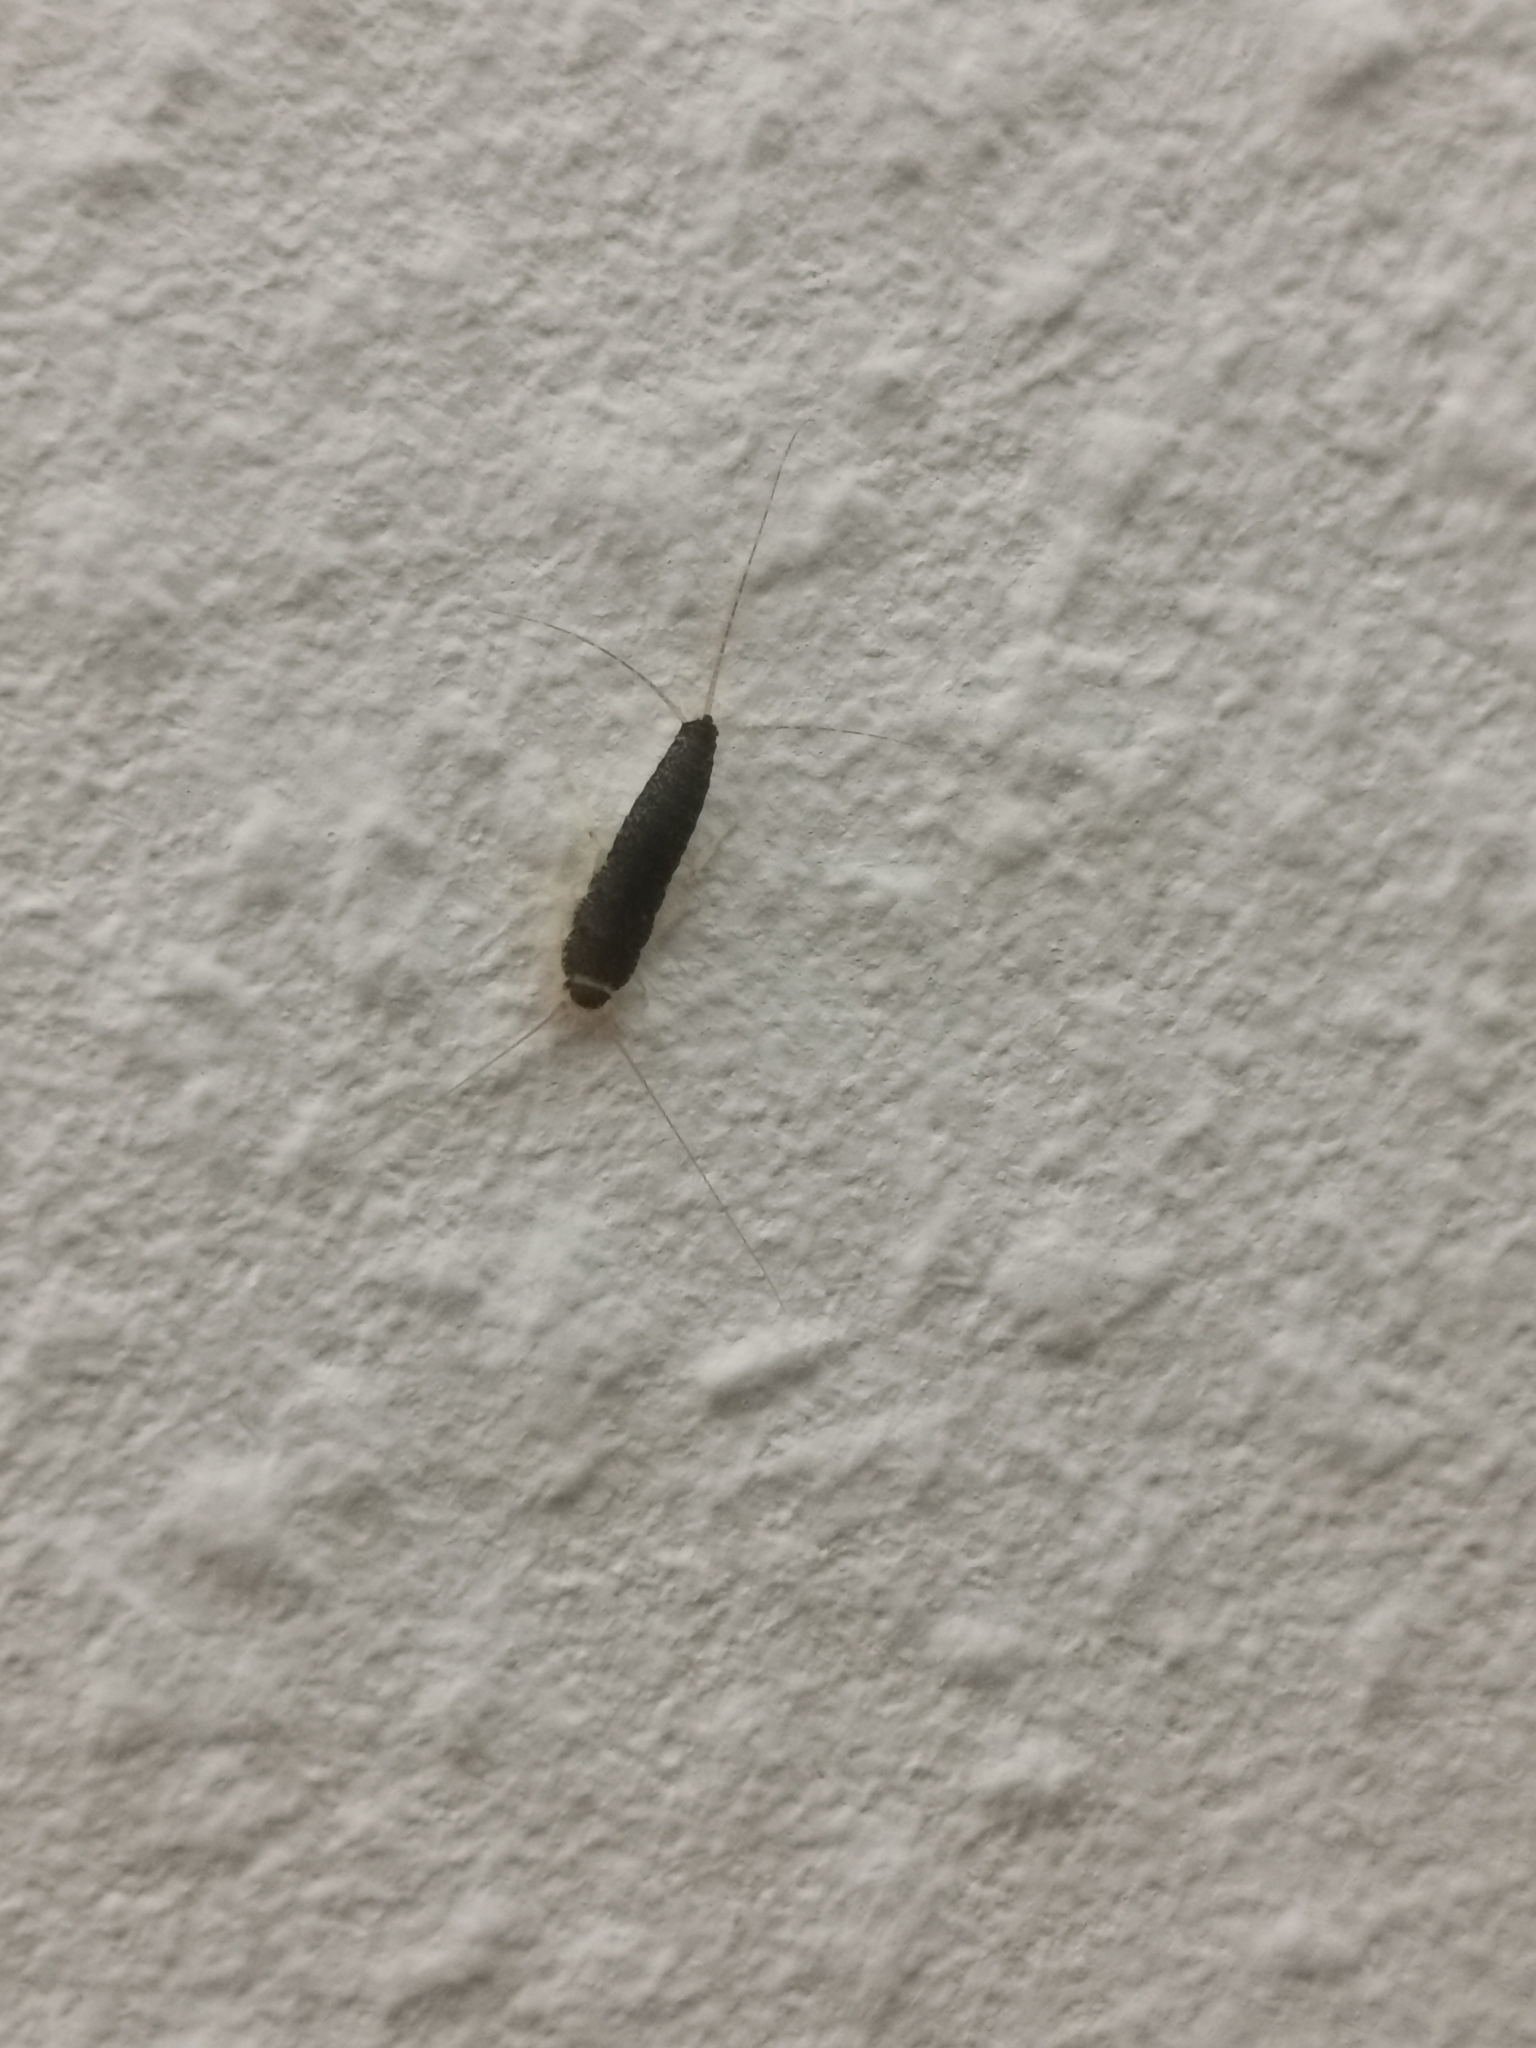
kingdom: Animalia
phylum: Arthropoda
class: Insecta
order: Zygentoma
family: Lepismatidae
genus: Ctenolepisma
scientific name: Ctenolepisma longicaudatum
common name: Silverfish
